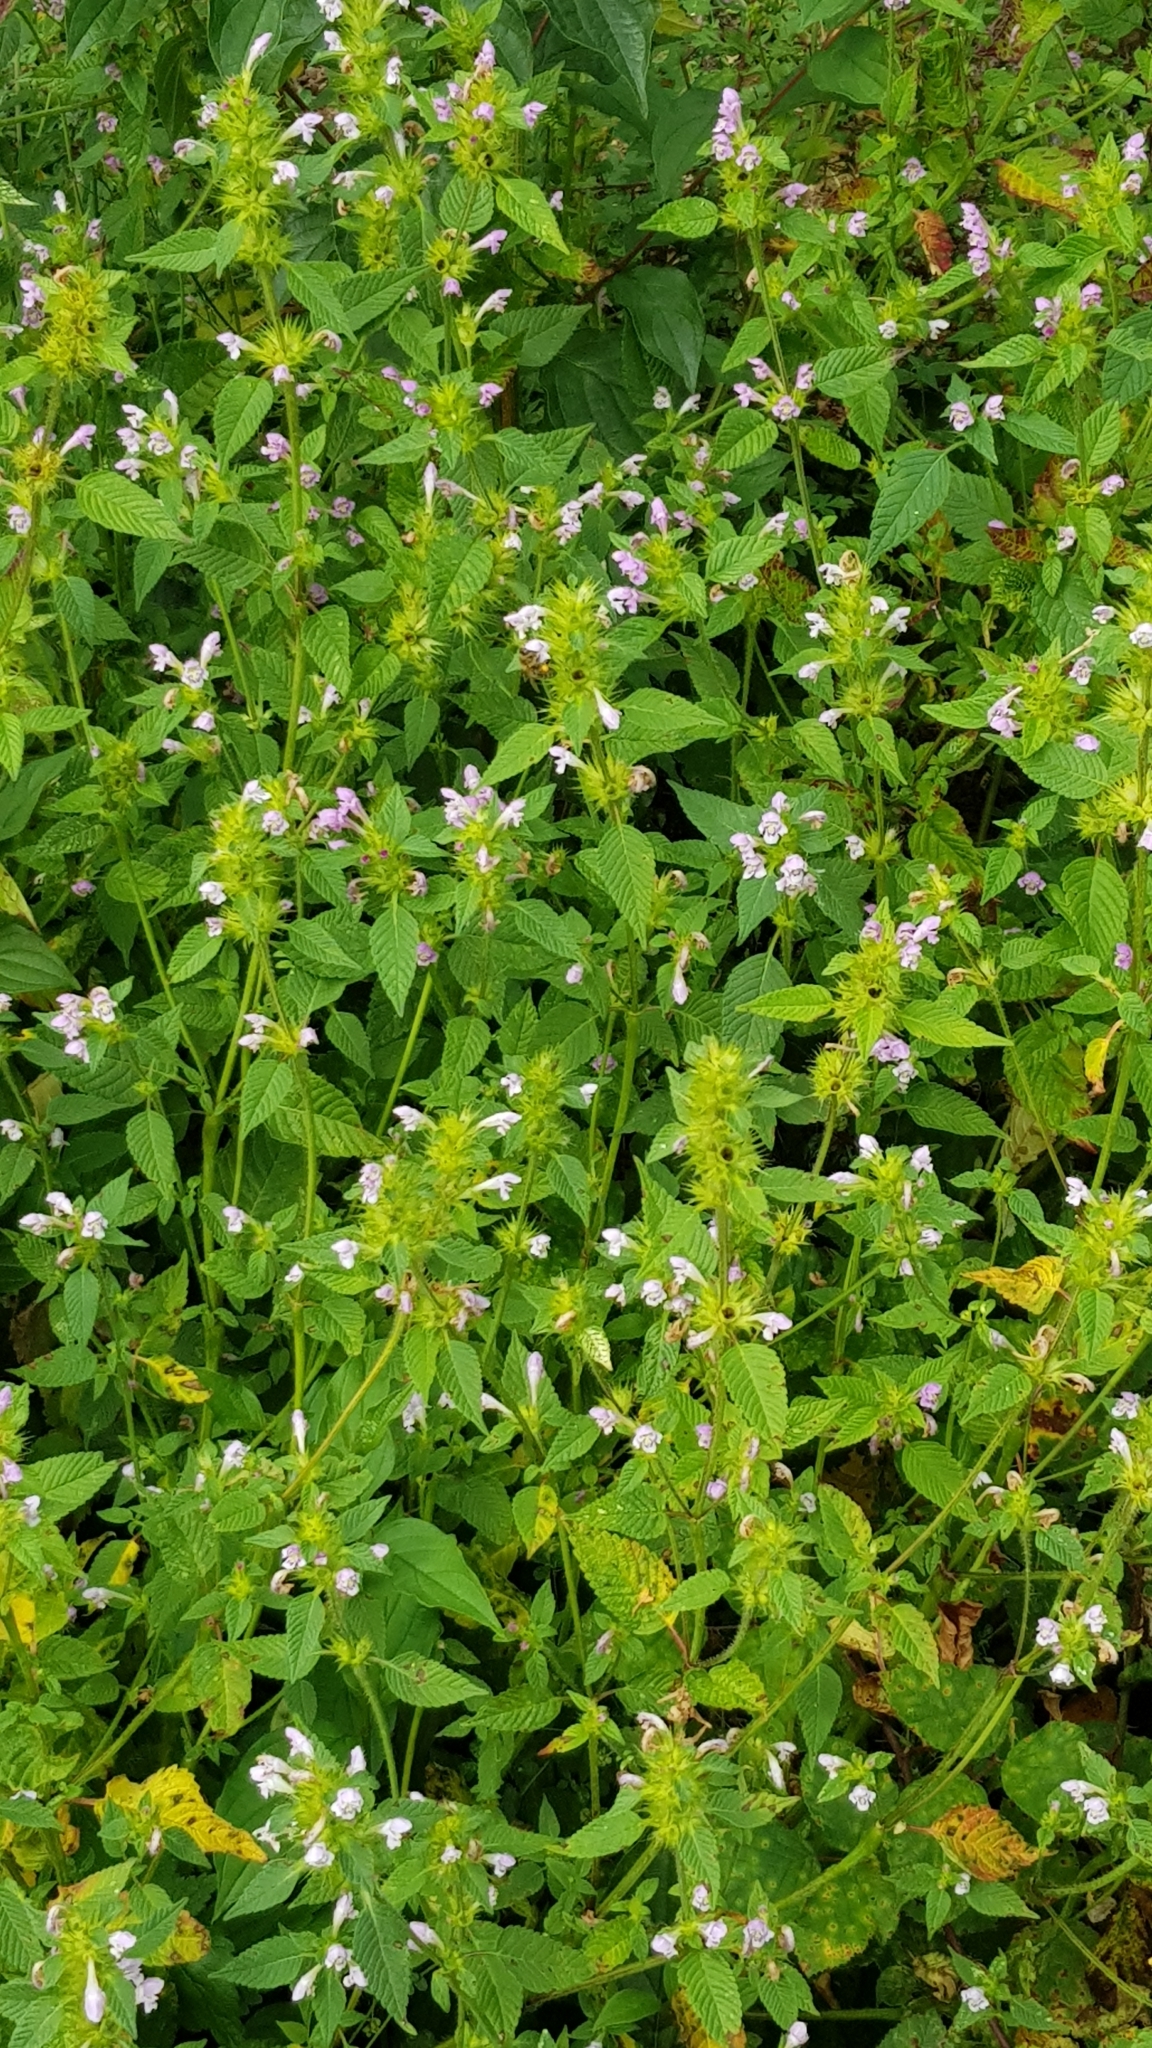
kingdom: Plantae
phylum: Tracheophyta
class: Magnoliopsida
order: Lamiales
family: Lamiaceae
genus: Galeopsis
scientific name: Galeopsis tetrahit
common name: Common hemp-nettle
